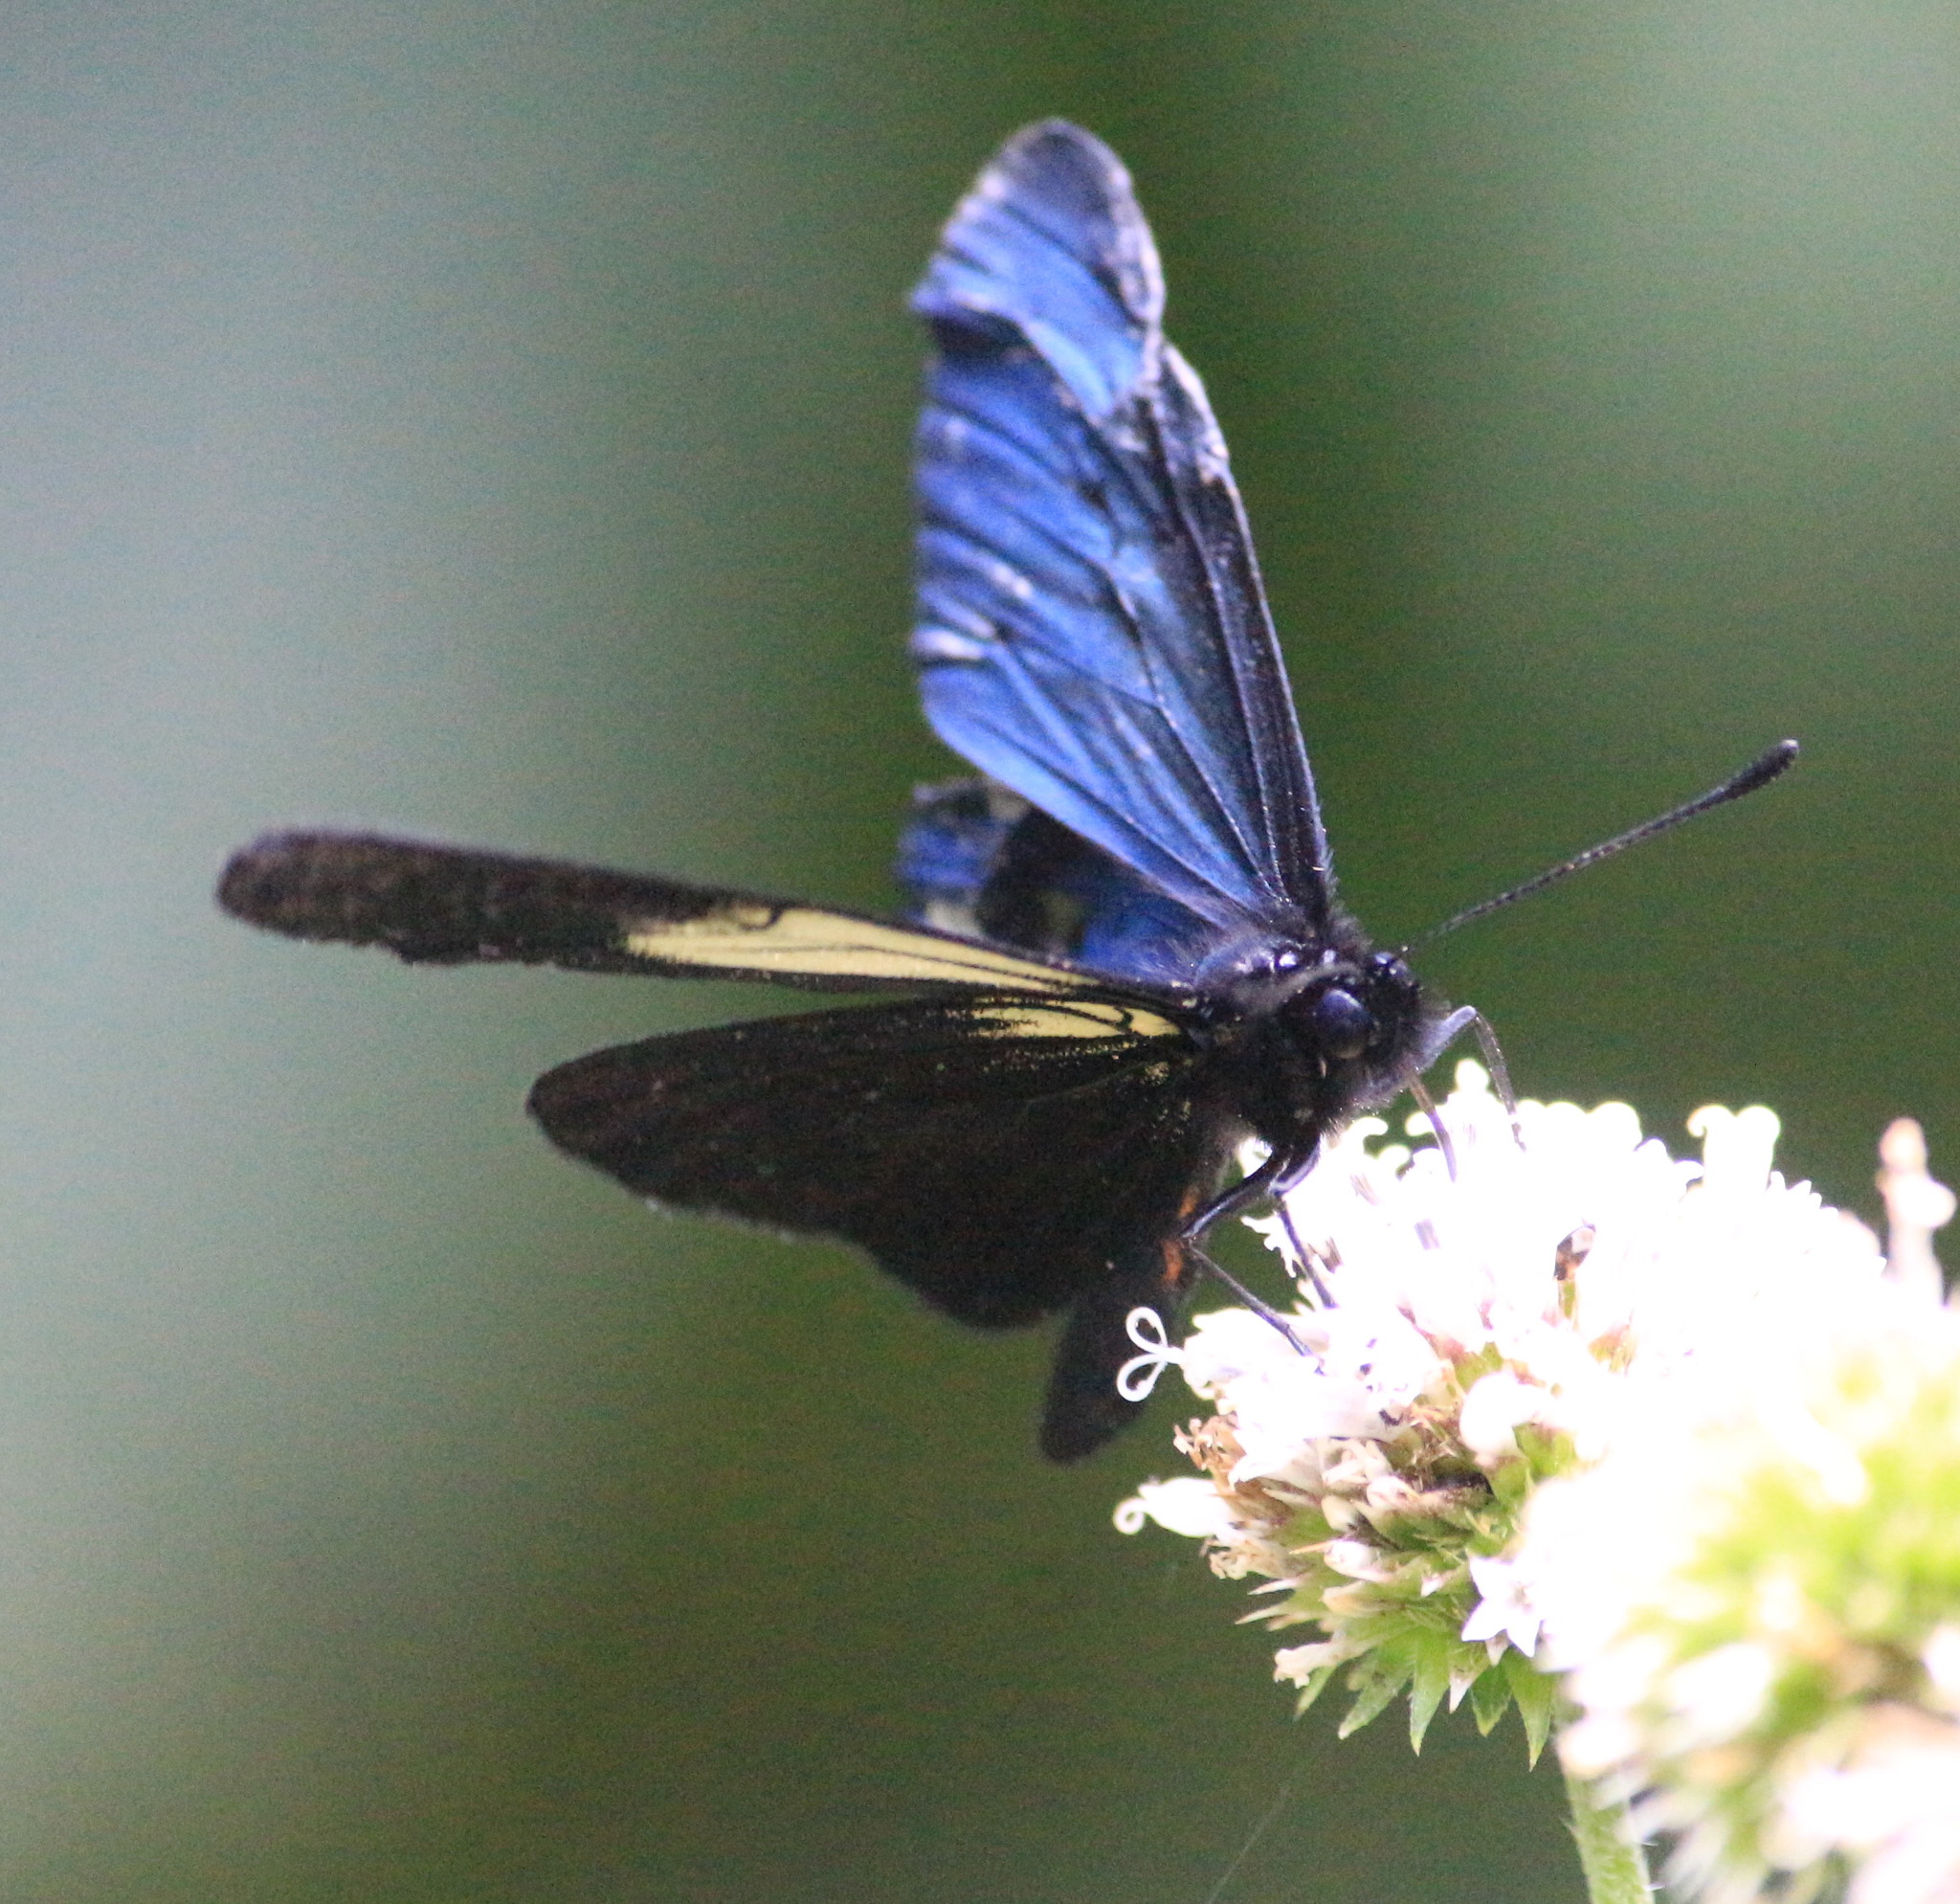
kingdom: Animalia
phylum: Arthropoda
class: Insecta
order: Lepidoptera
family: Nymphalidae
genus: Acraea
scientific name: Acraea Altinote ozomene
